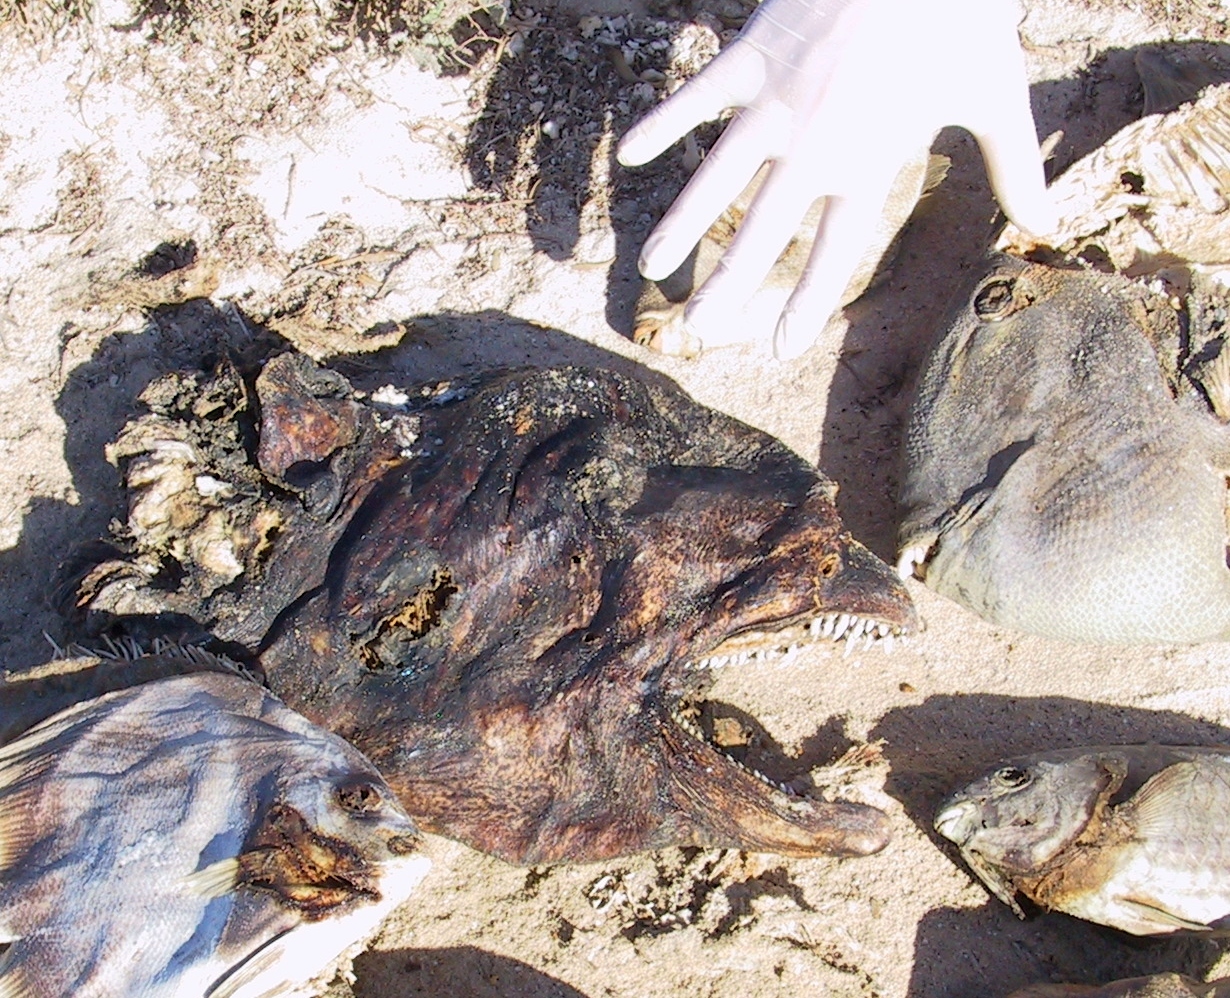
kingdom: Animalia
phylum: Chordata
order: Tetraodontiformes
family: Balistidae
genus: Balistoides
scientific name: Balistoides viridescens
